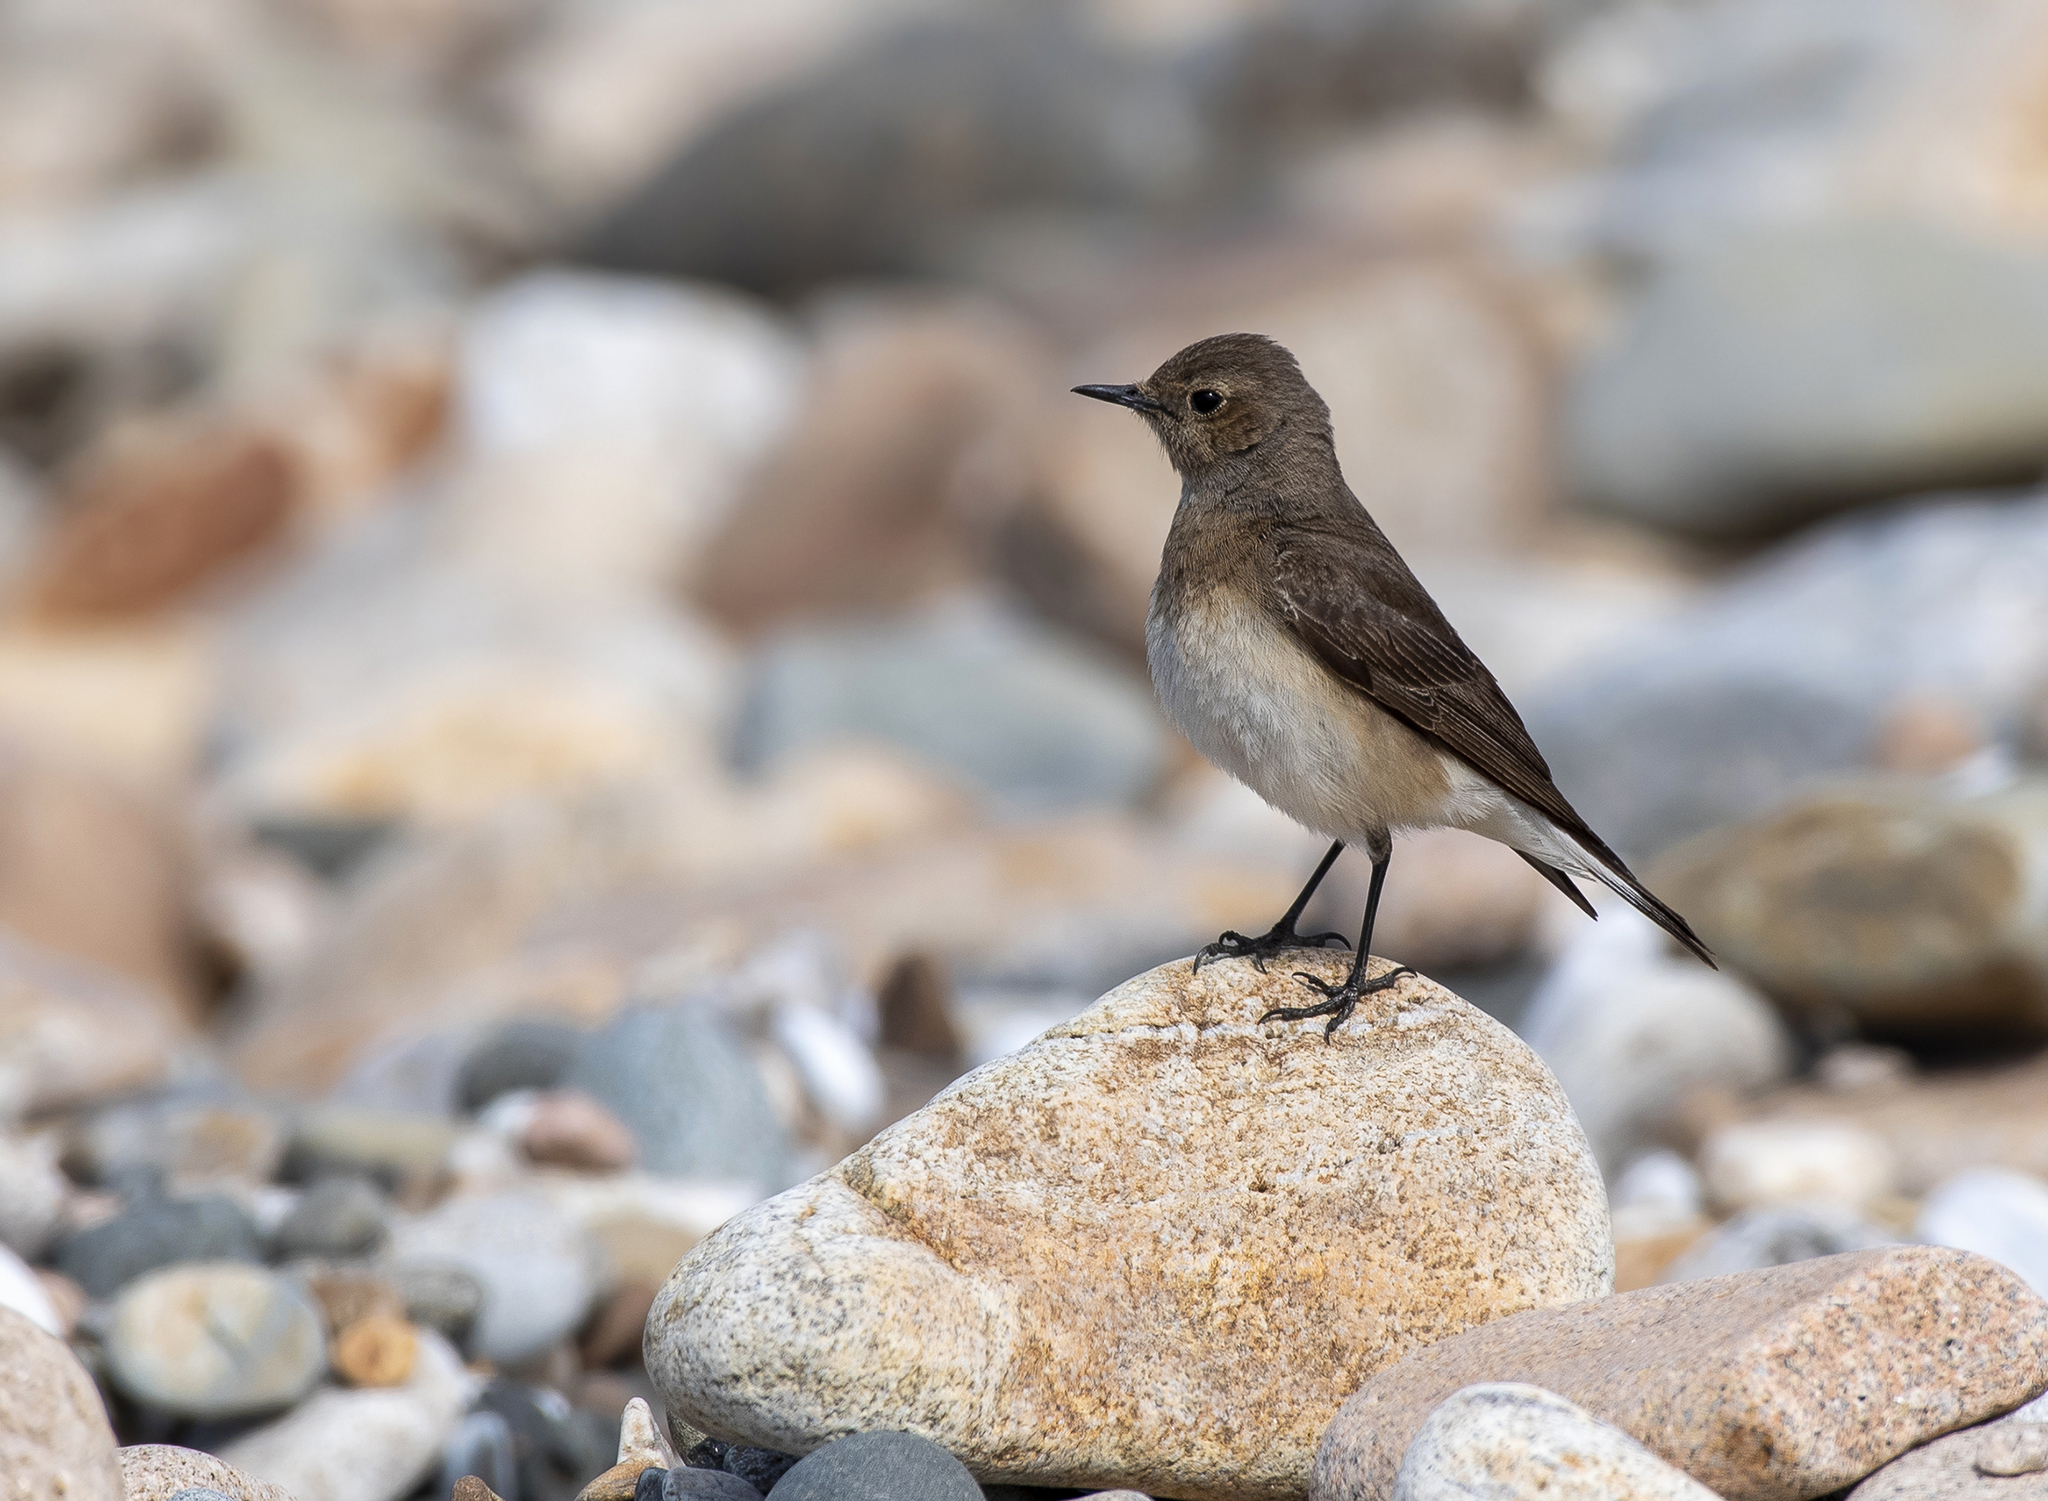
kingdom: Animalia
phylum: Chordata
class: Aves
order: Passeriformes
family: Muscicapidae
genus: Oenanthe
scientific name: Oenanthe pleschanka
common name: Pied wheatear
